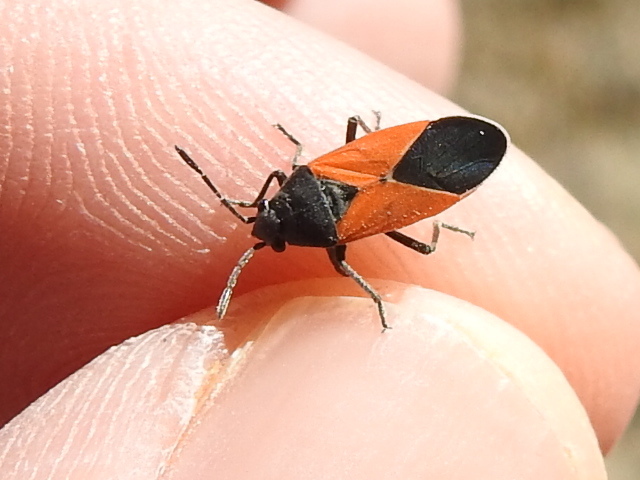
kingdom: Animalia
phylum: Arthropoda
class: Insecta
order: Hemiptera
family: Lygaeidae
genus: Melanopleurus
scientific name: Melanopleurus belfragei
